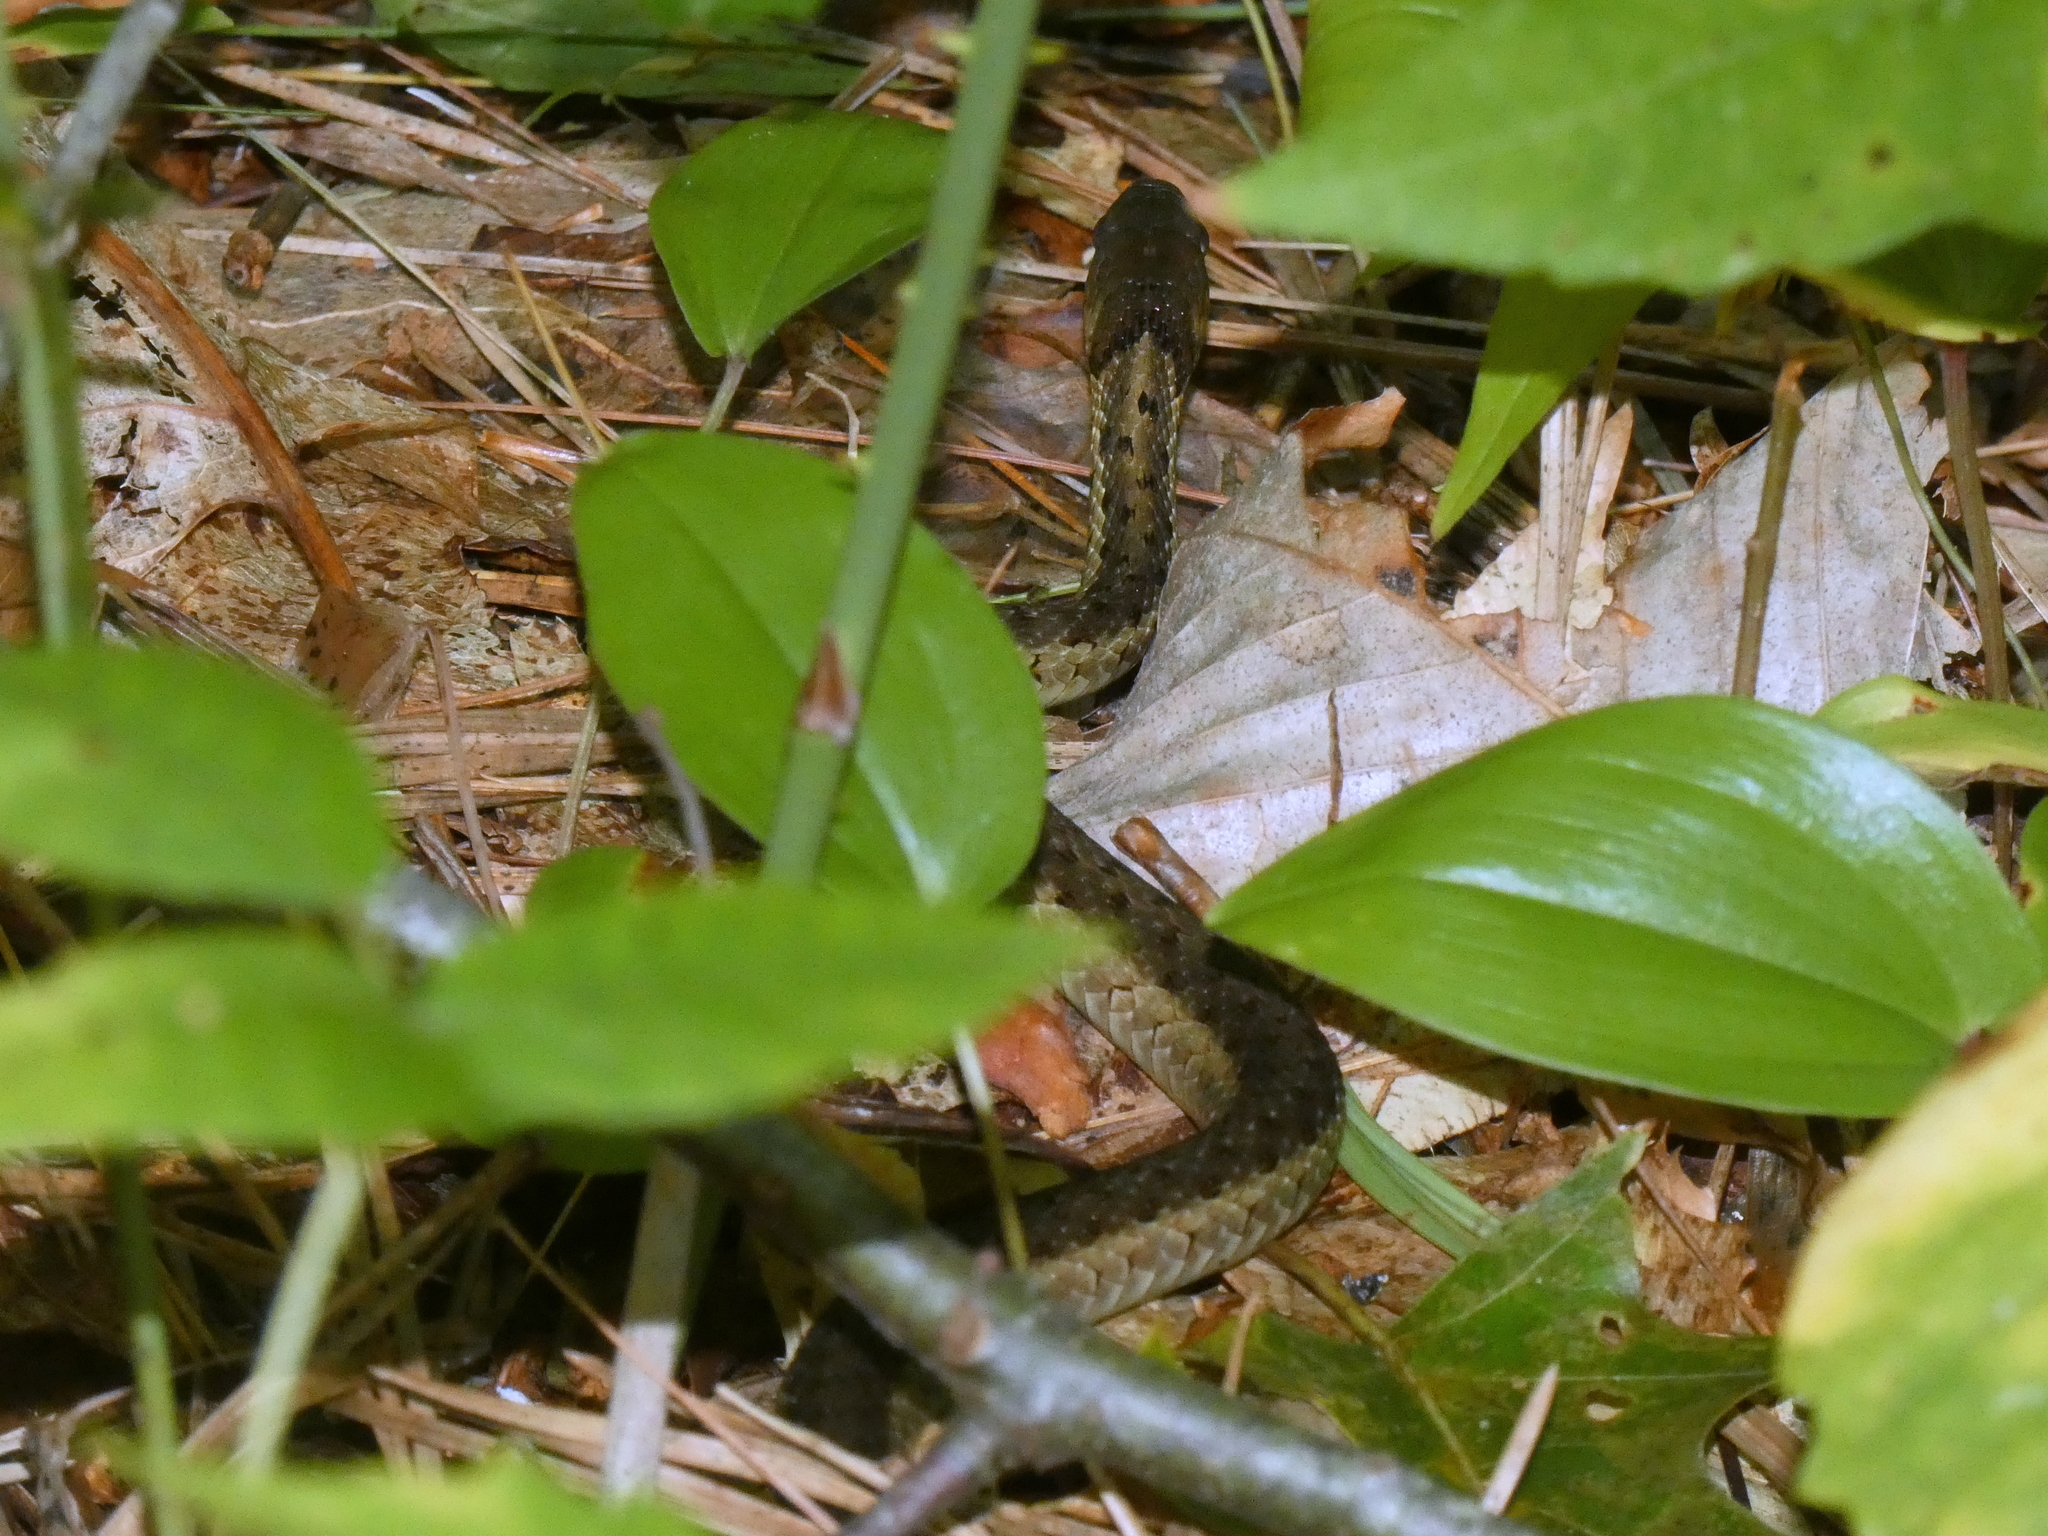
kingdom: Animalia
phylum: Chordata
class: Squamata
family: Colubridae
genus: Thamnophis
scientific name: Thamnophis sirtalis
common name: Common garter snake
